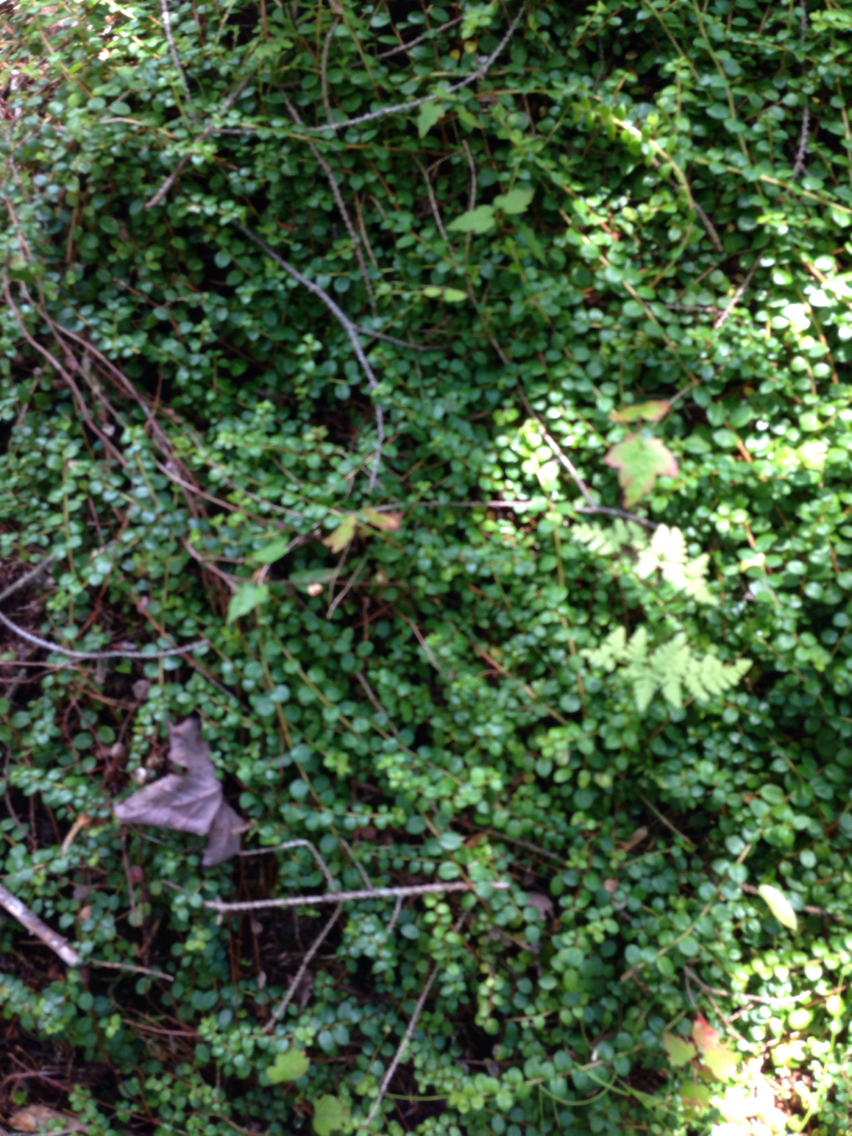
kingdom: Plantae
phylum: Tracheophyta
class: Magnoliopsida
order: Ericales
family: Ericaceae
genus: Gaultheria
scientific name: Gaultheria hispidula
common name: Cancer wintergreen
